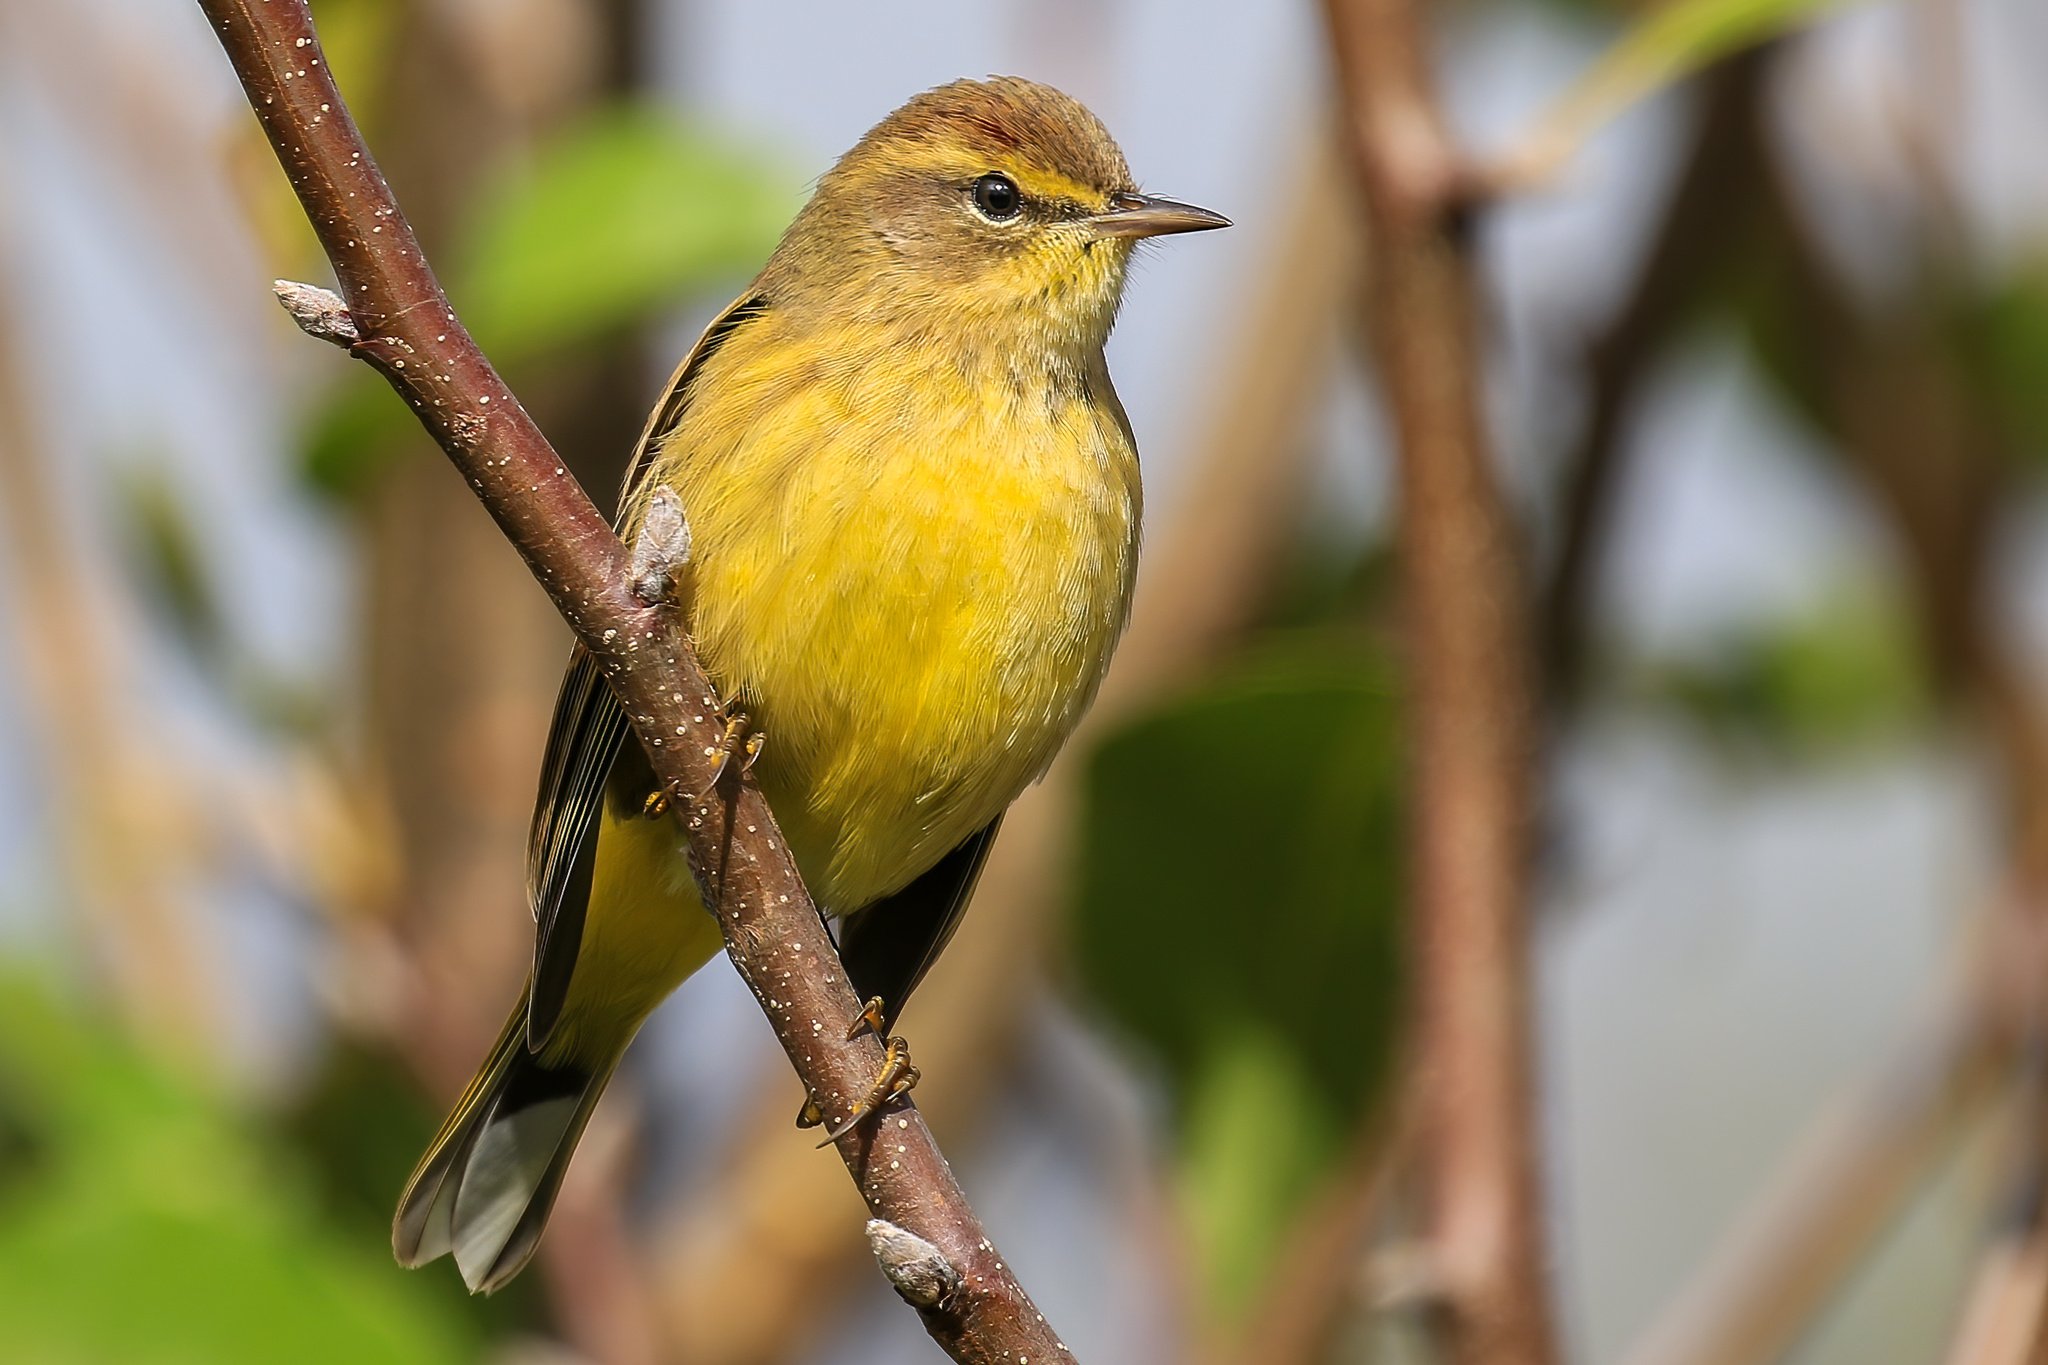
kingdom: Animalia
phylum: Chordata
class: Aves
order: Passeriformes
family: Parulidae
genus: Setophaga
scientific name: Setophaga palmarum
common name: Palm warbler
